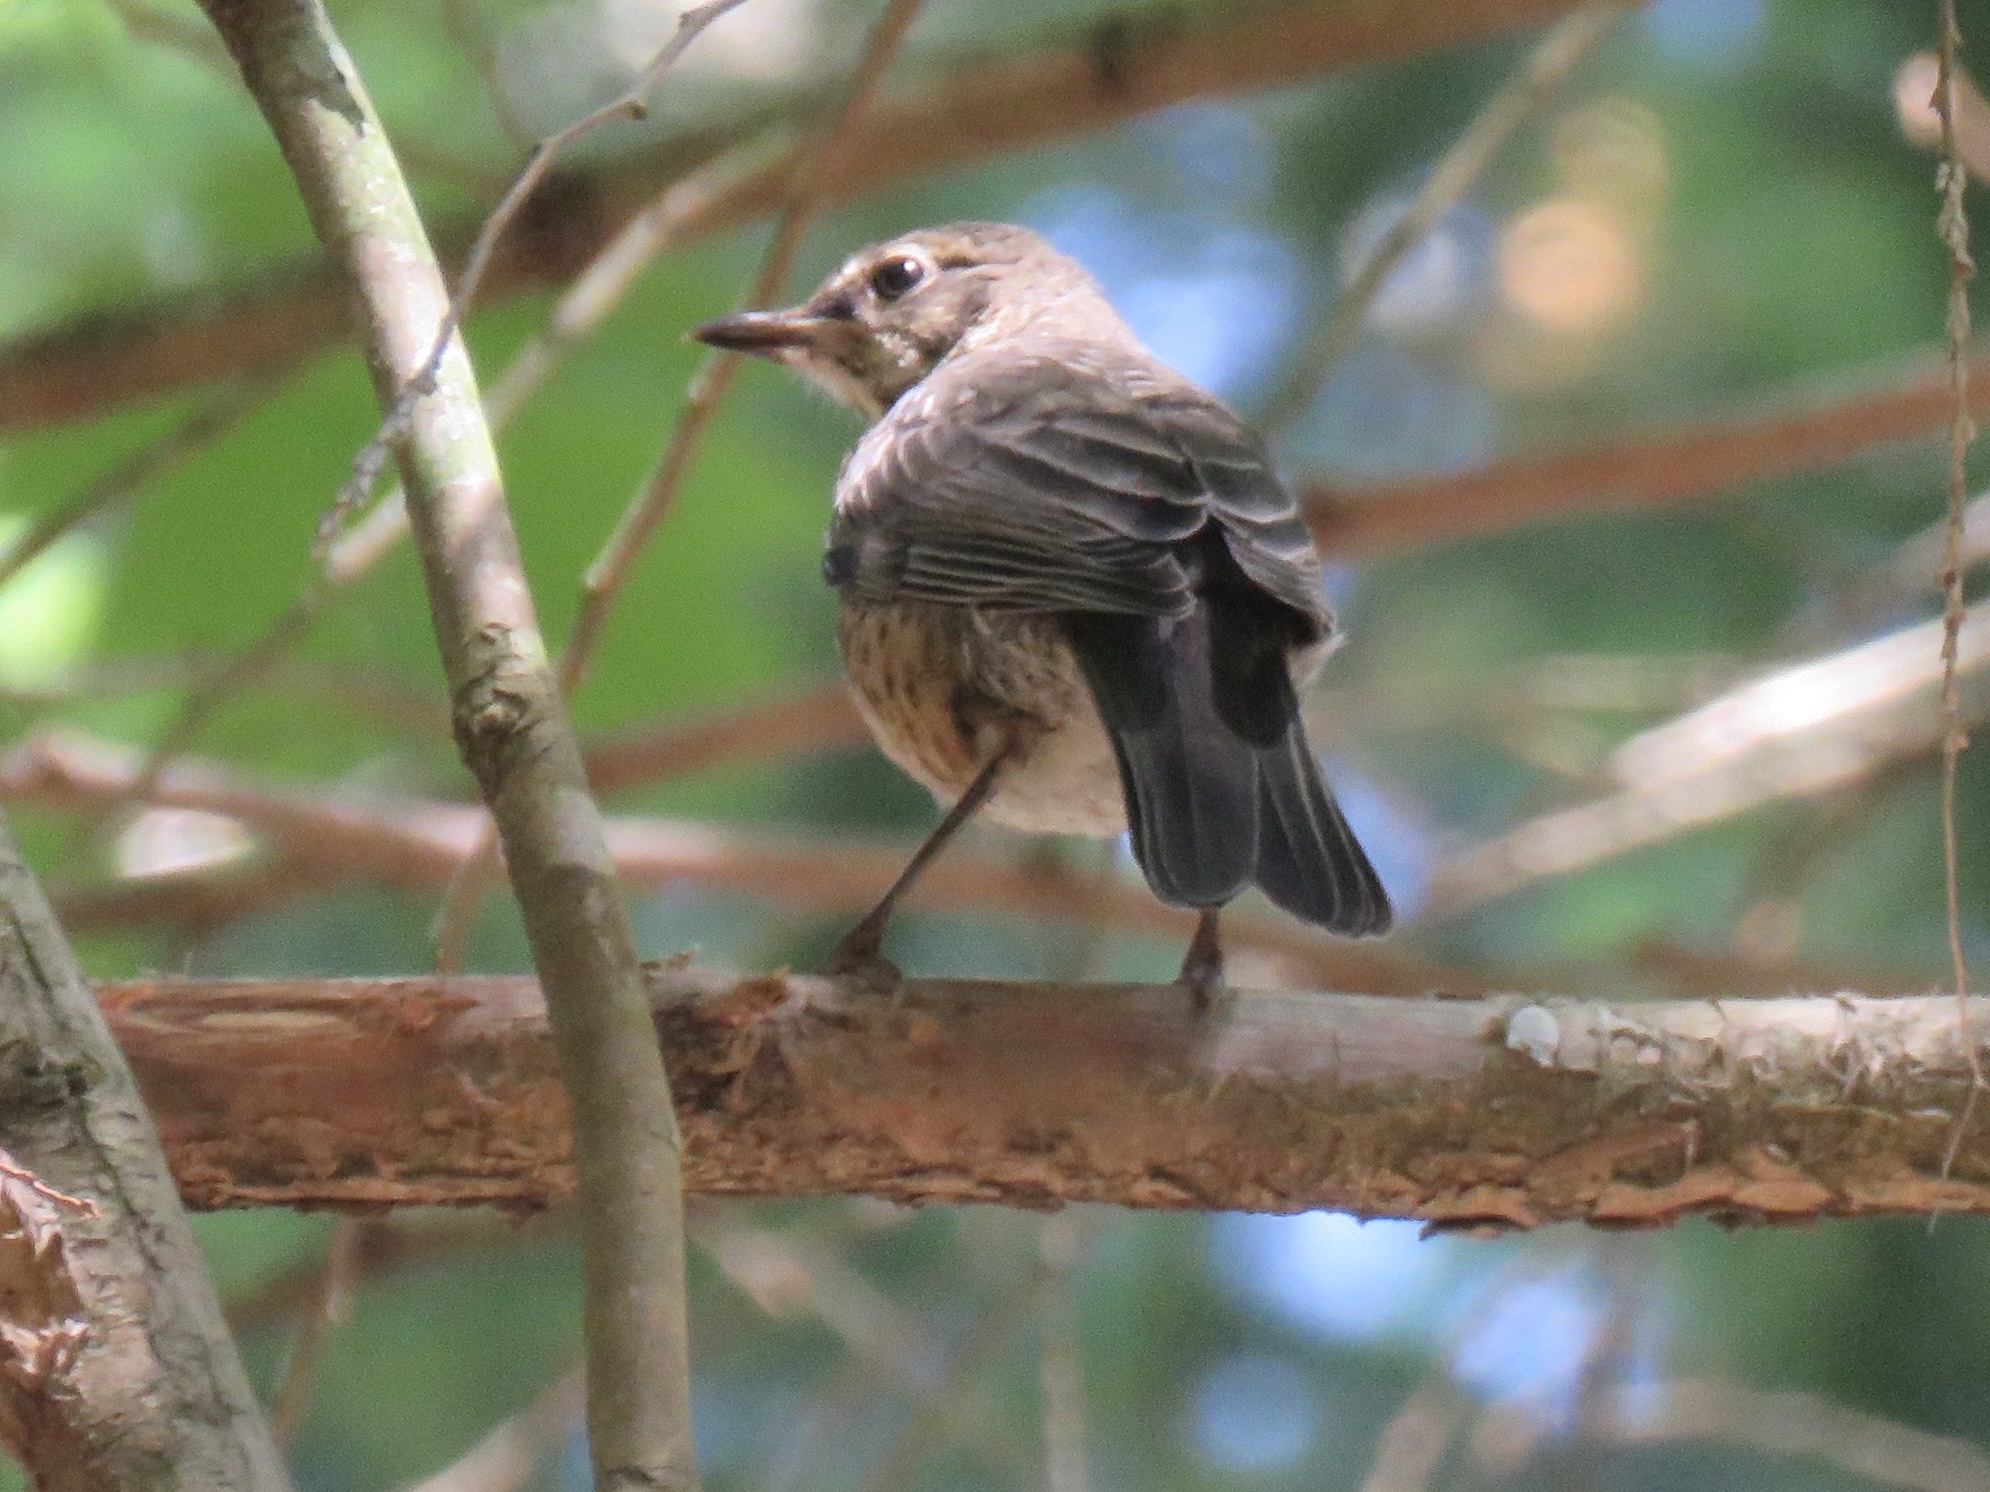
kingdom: Animalia
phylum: Chordata
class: Aves
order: Passeriformes
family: Turdidae
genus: Turdus
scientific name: Turdus migratorius
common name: American robin
